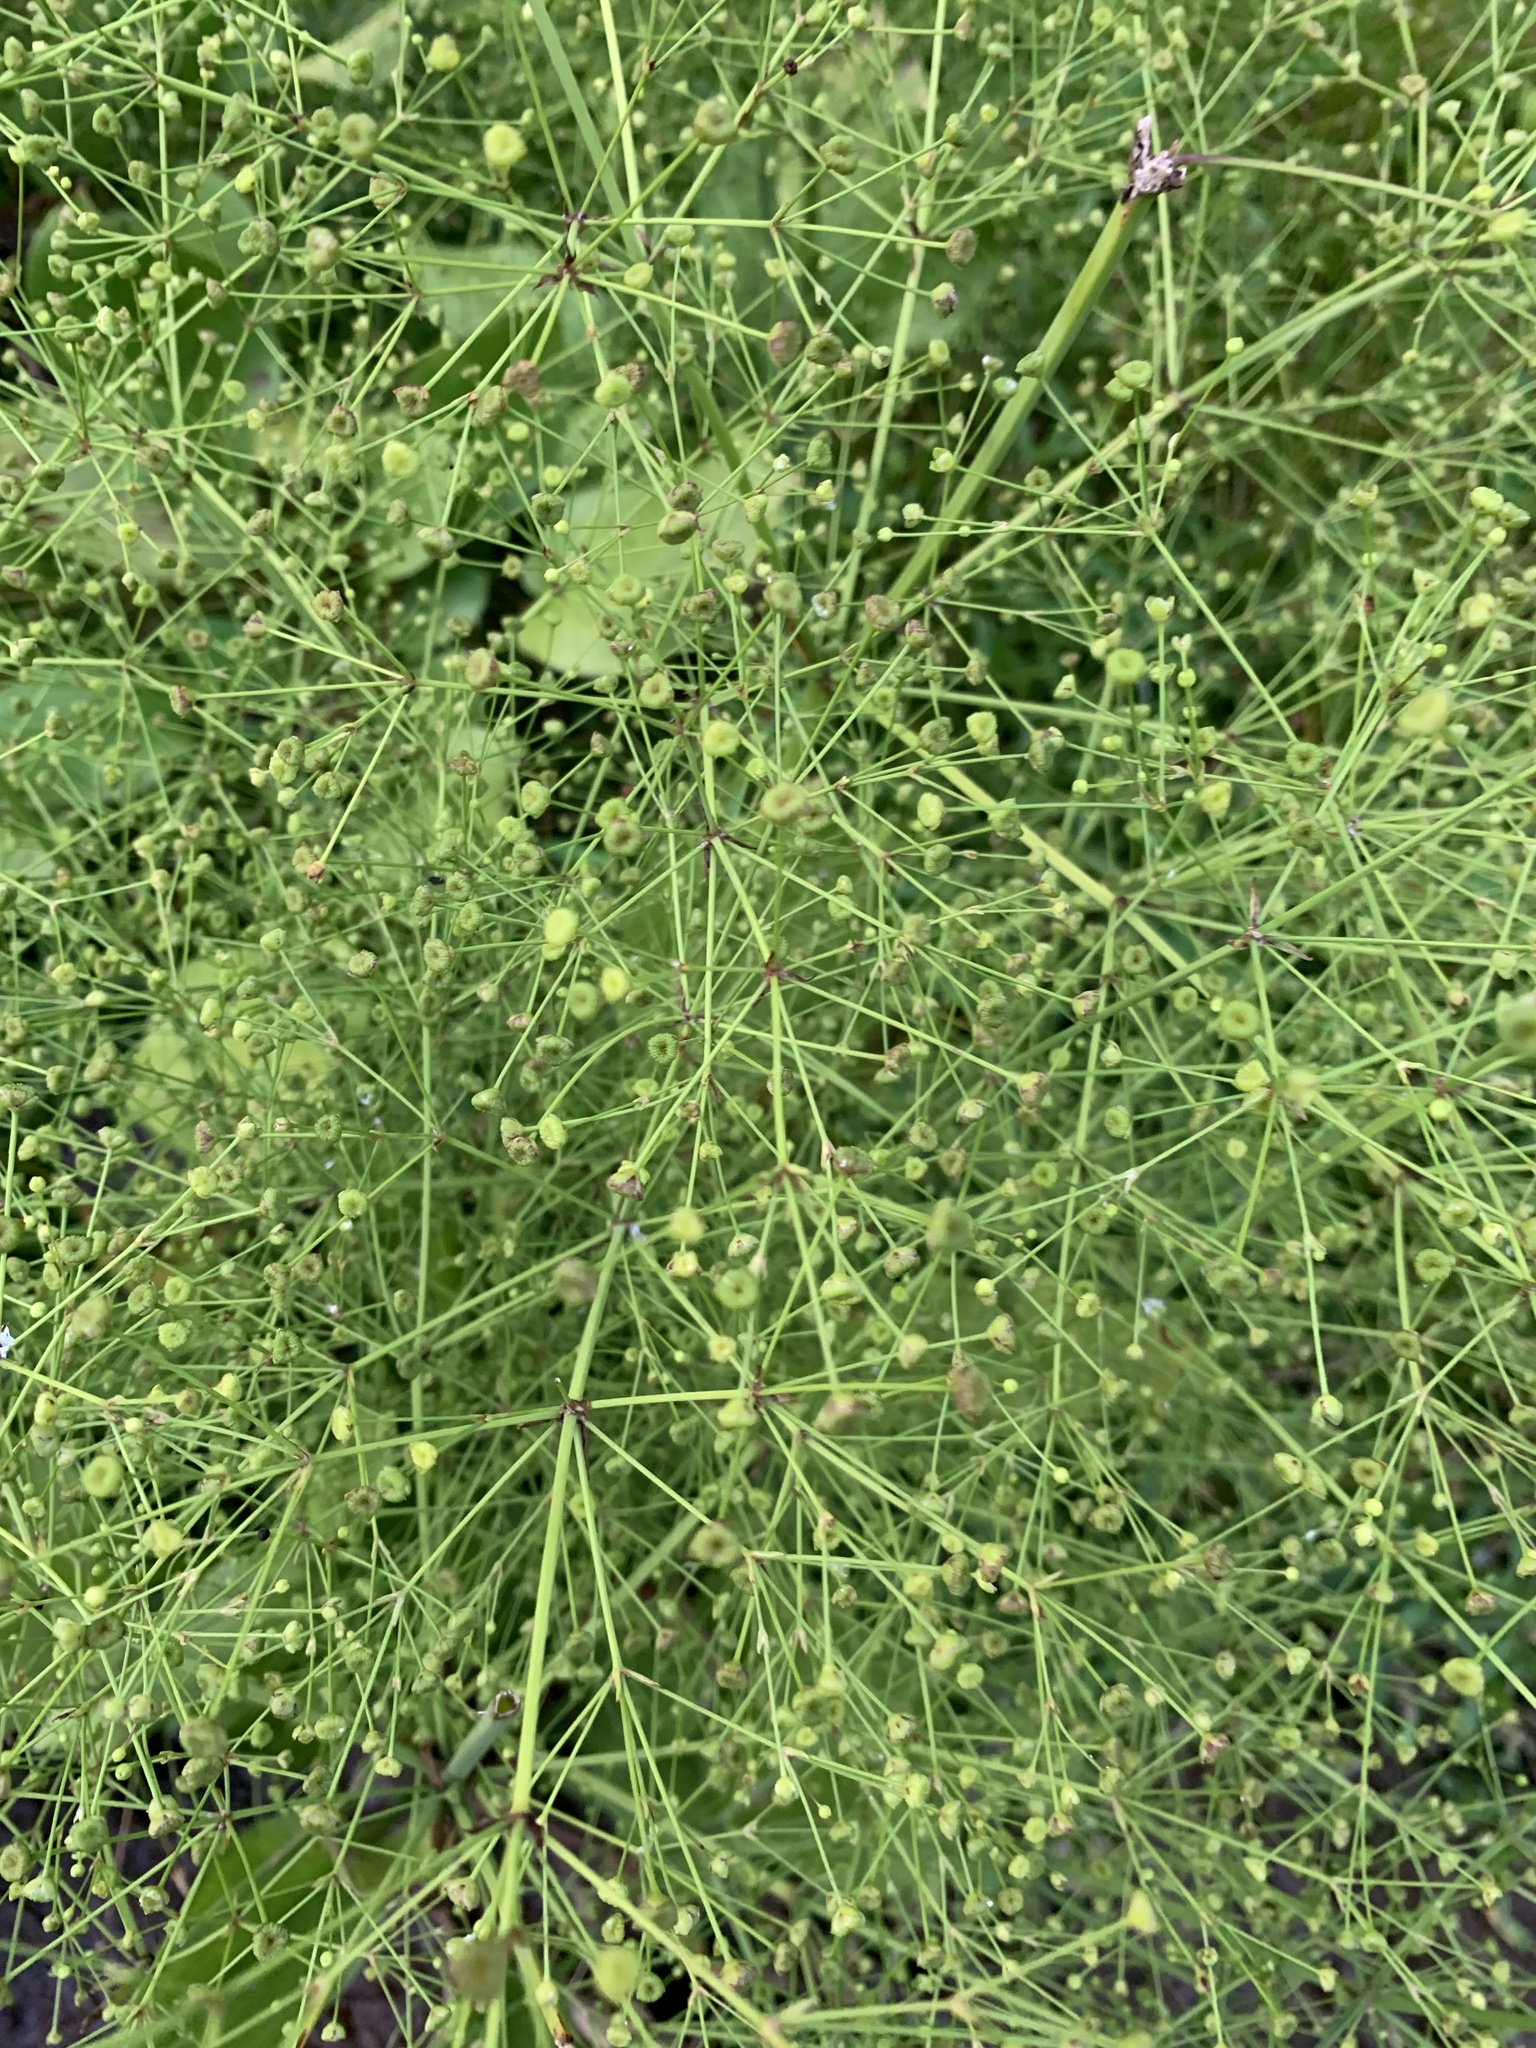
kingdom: Plantae
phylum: Tracheophyta
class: Liliopsida
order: Alismatales
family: Alismataceae
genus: Alisma
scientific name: Alisma subcordatum
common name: Southern water-plantain
